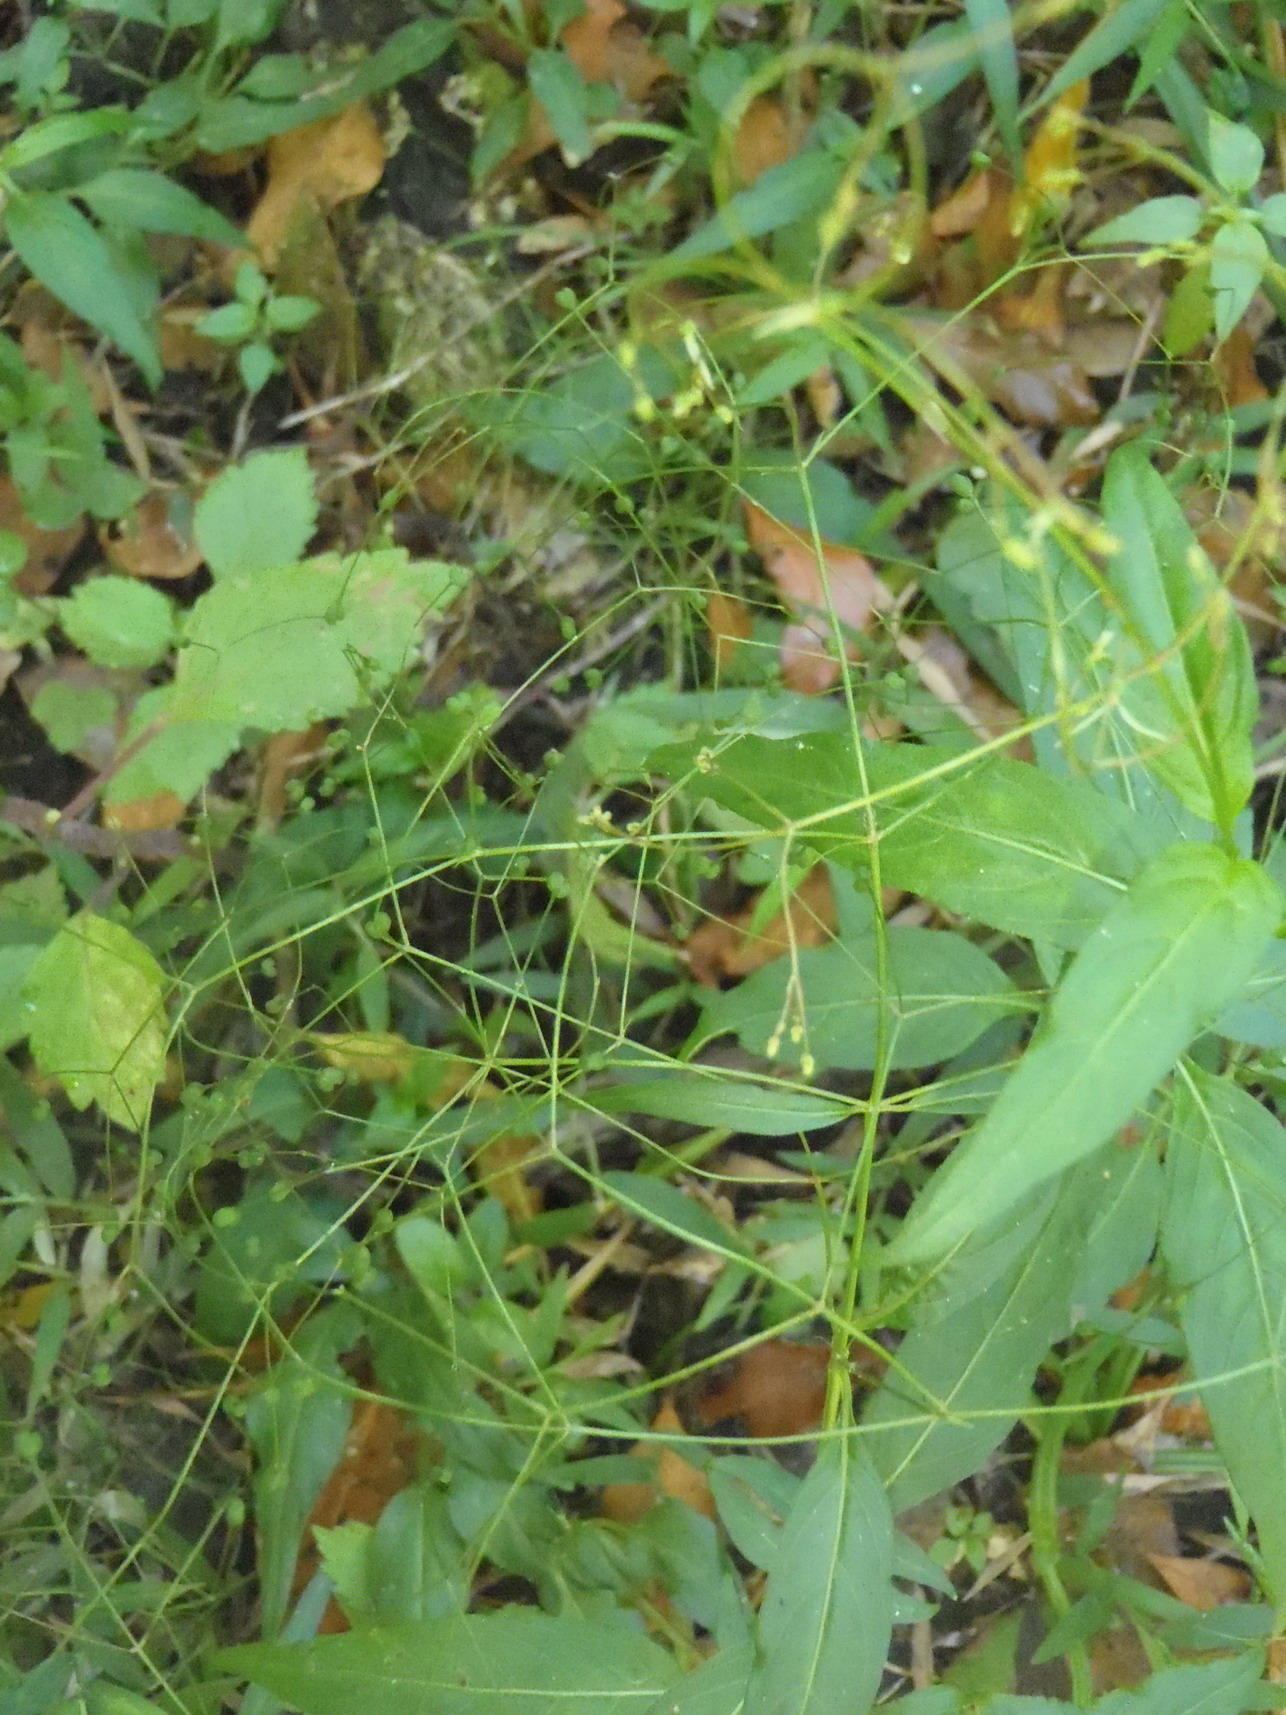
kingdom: Plantae
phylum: Tracheophyta
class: Magnoliopsida
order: Gentianales
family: Rubiaceae
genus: Galopina
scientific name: Galopina circaeoides
